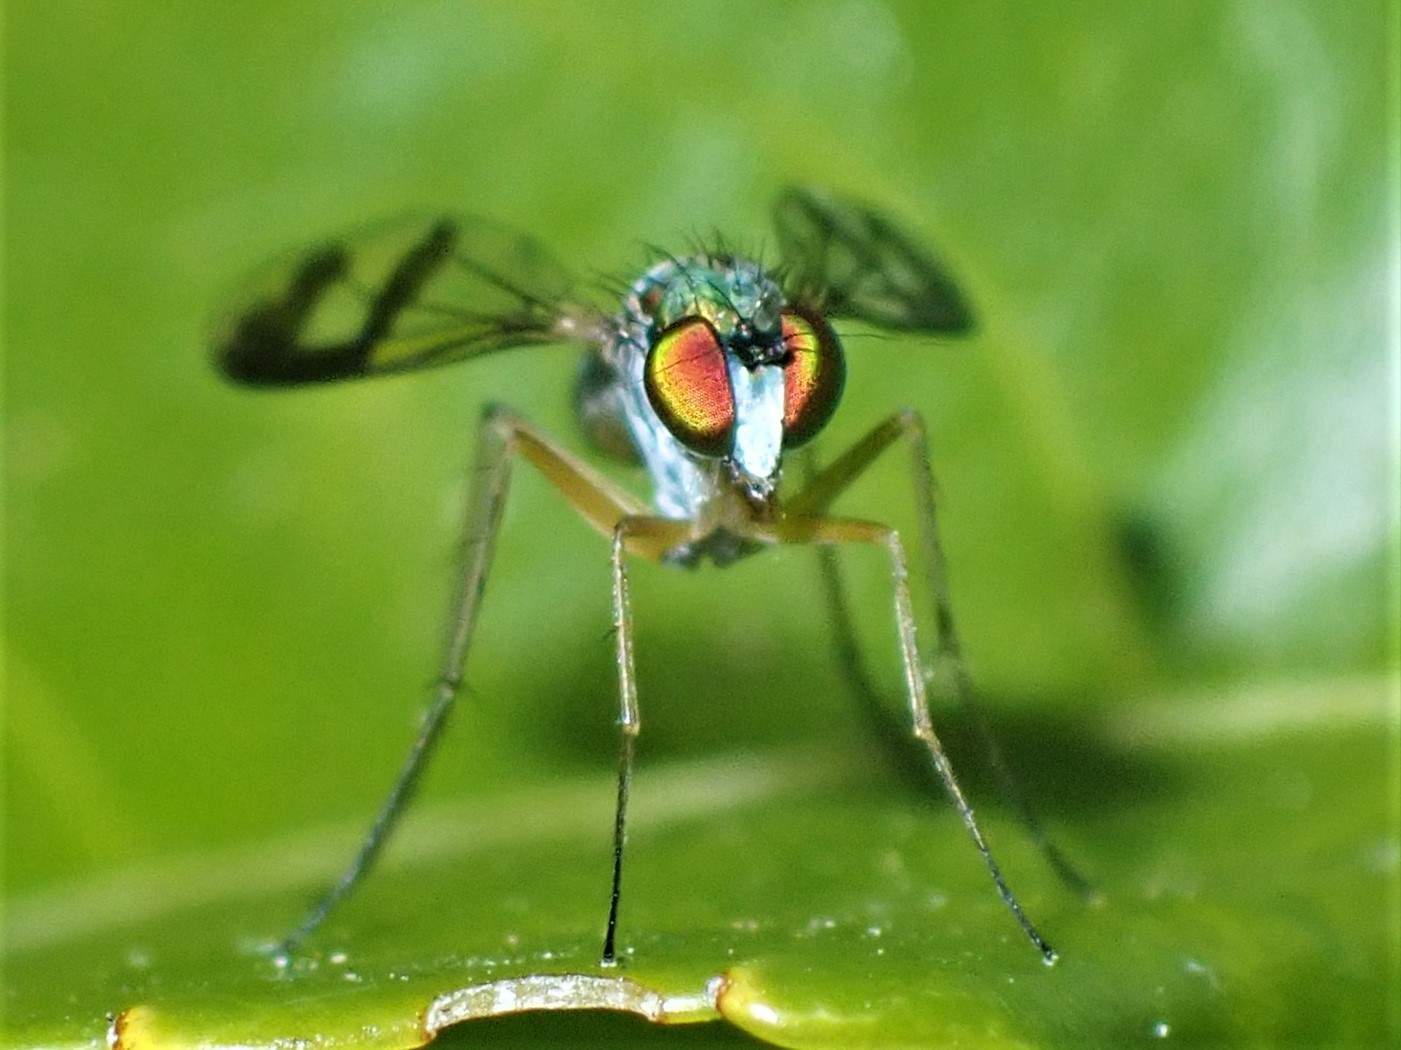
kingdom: Animalia
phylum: Arthropoda
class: Insecta
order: Diptera
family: Dolichopodidae
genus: Austrosciapus
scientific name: Austrosciapus proximus
